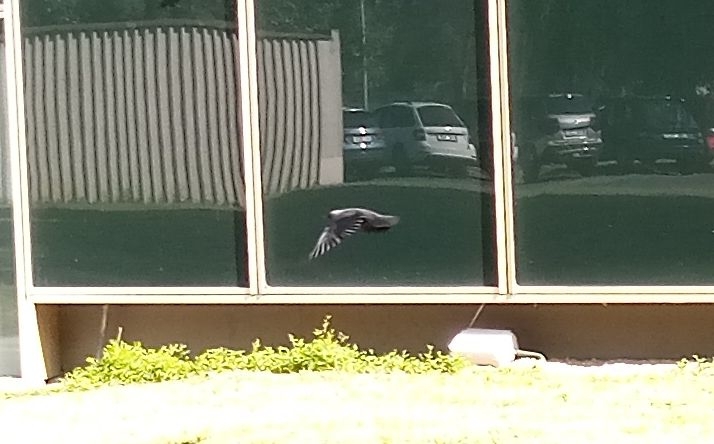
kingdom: Animalia
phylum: Chordata
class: Aves
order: Passeriformes
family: Corvidae
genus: Coloeus
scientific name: Coloeus monedula
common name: Western jackdaw
